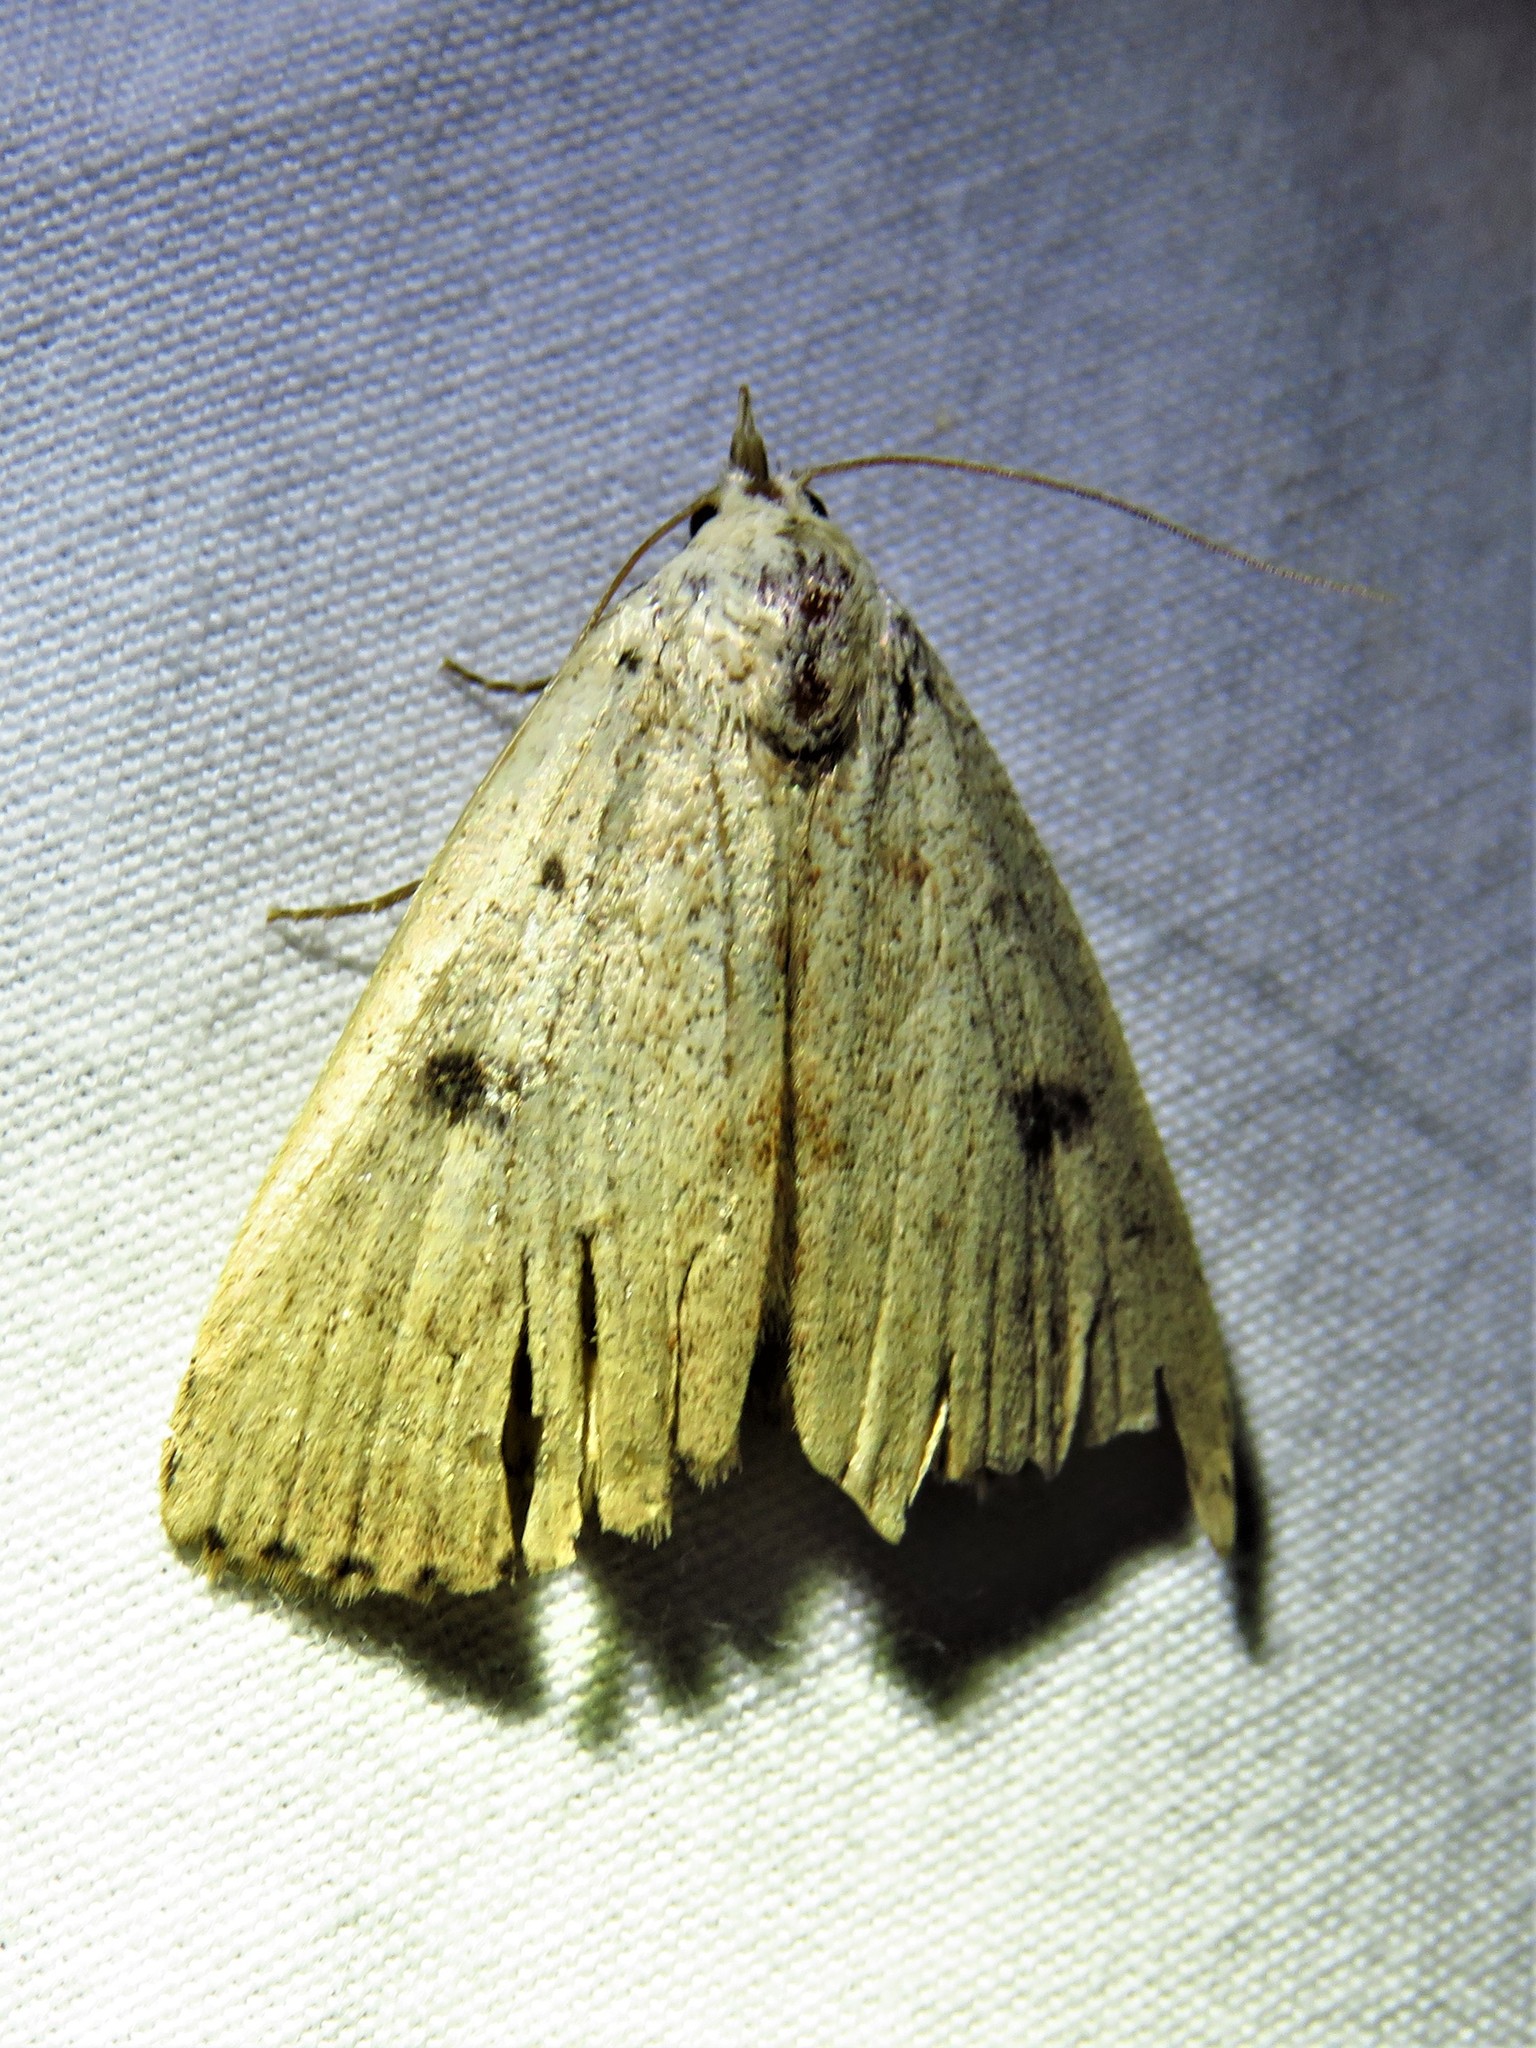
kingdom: Animalia
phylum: Arthropoda
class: Insecta
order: Lepidoptera
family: Erebidae
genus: Scolecocampa
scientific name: Scolecocampa liburna
